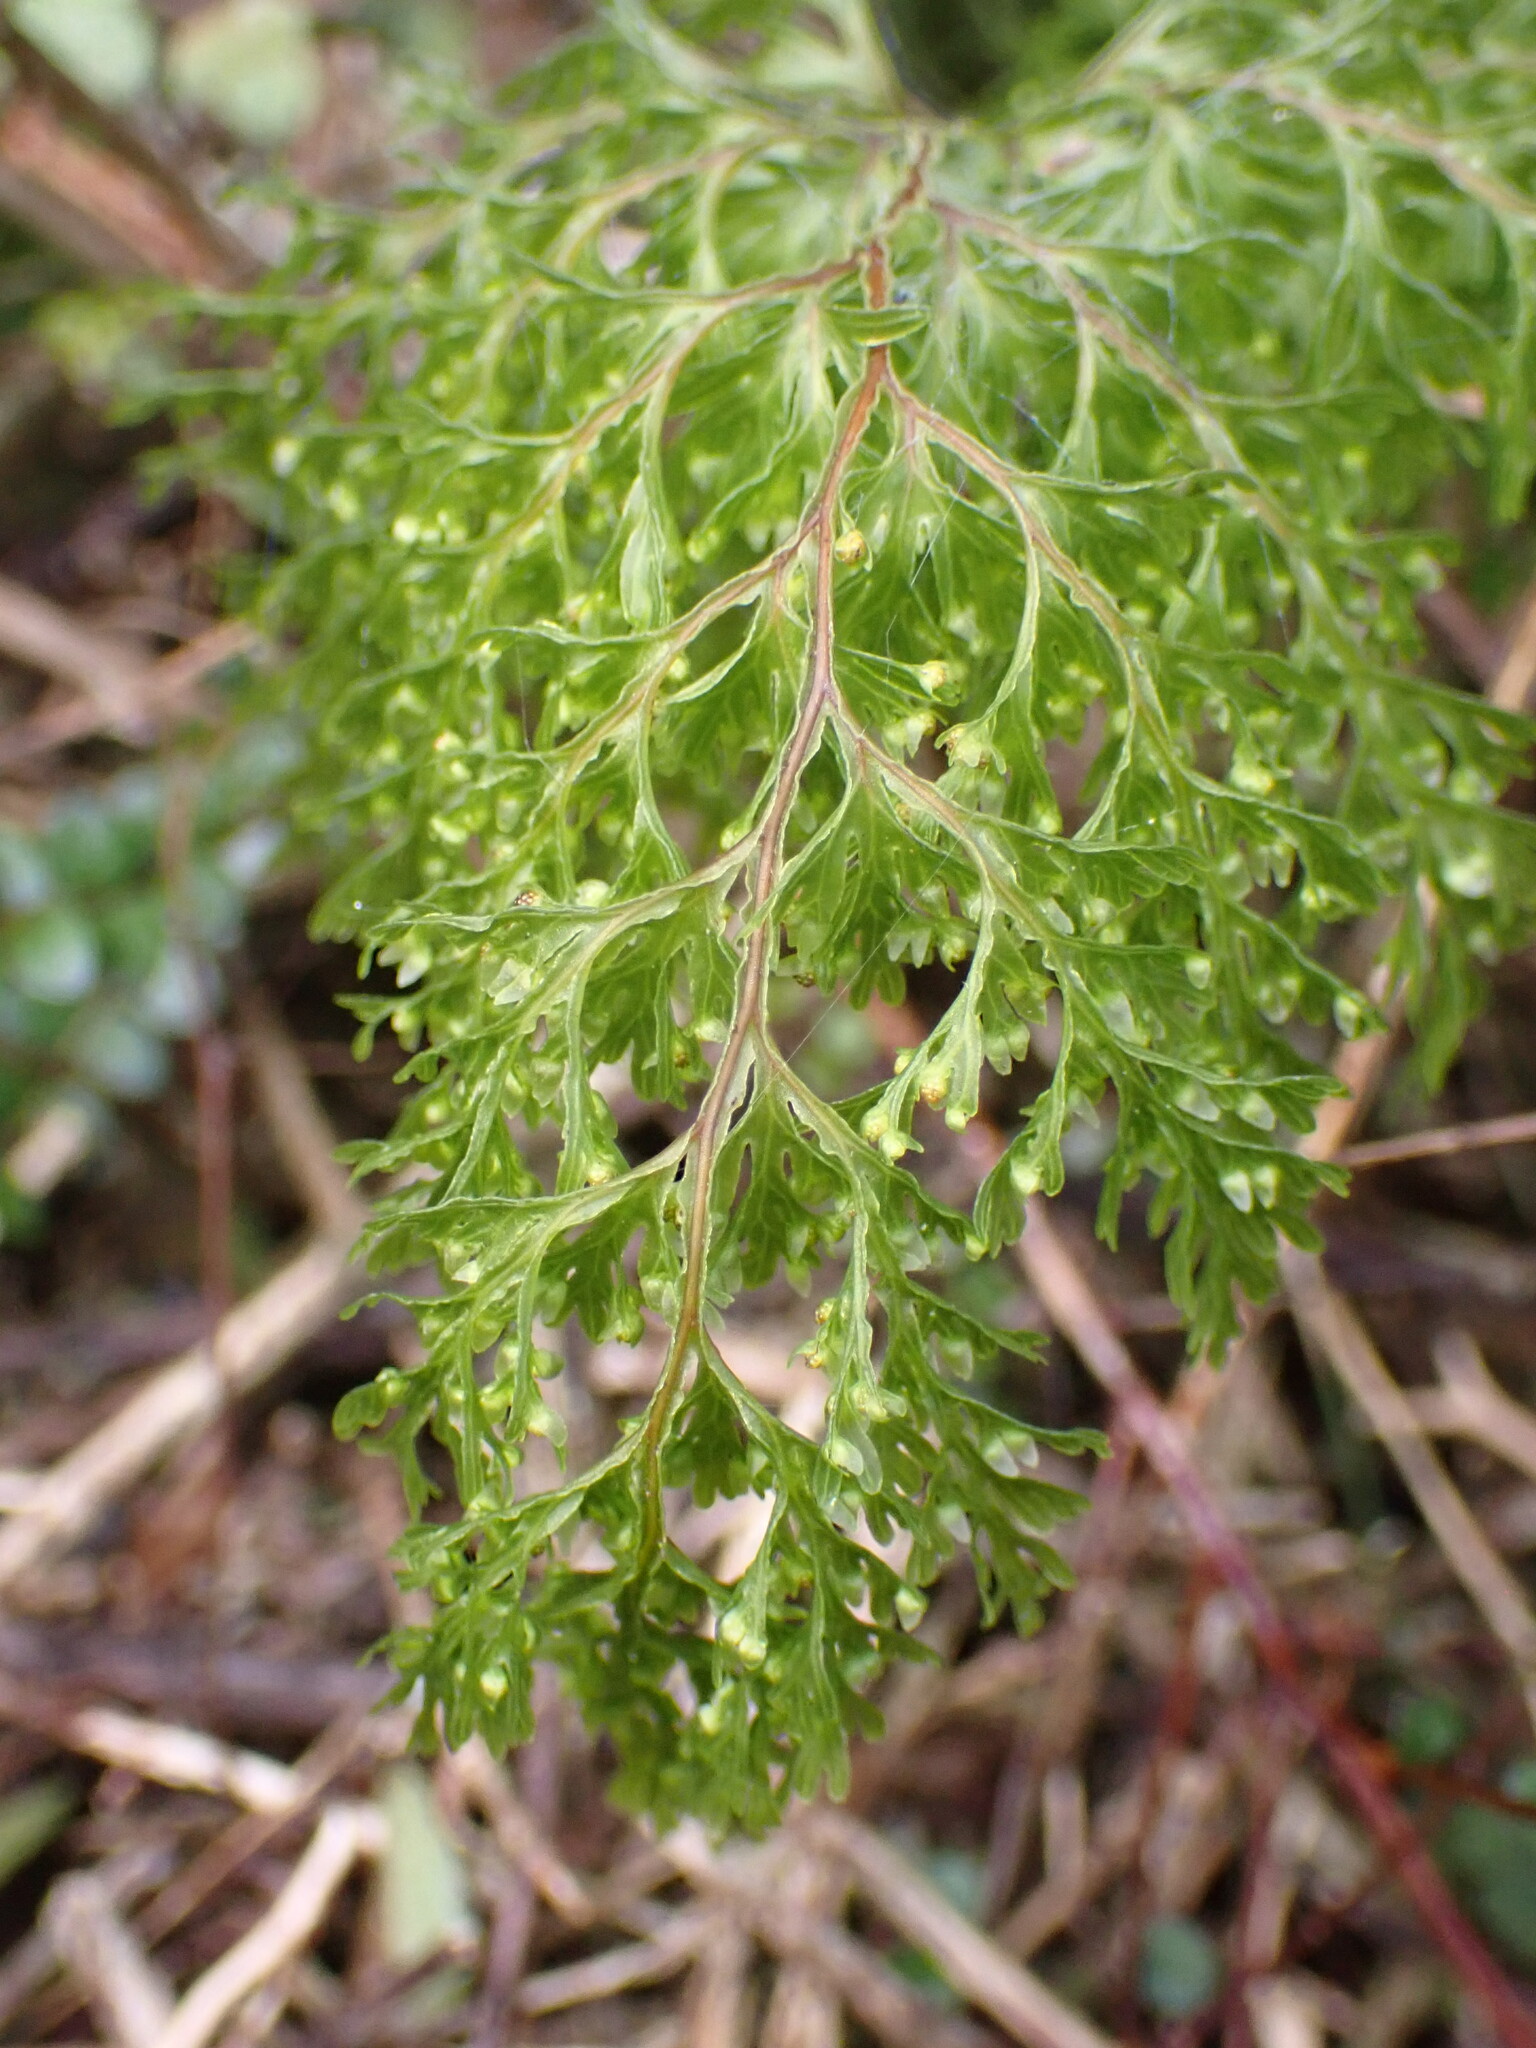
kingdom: Plantae
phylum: Tracheophyta
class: Polypodiopsida
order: Hymenophyllales
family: Hymenophyllaceae
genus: Hymenophyllum
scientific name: Hymenophyllum demissum
